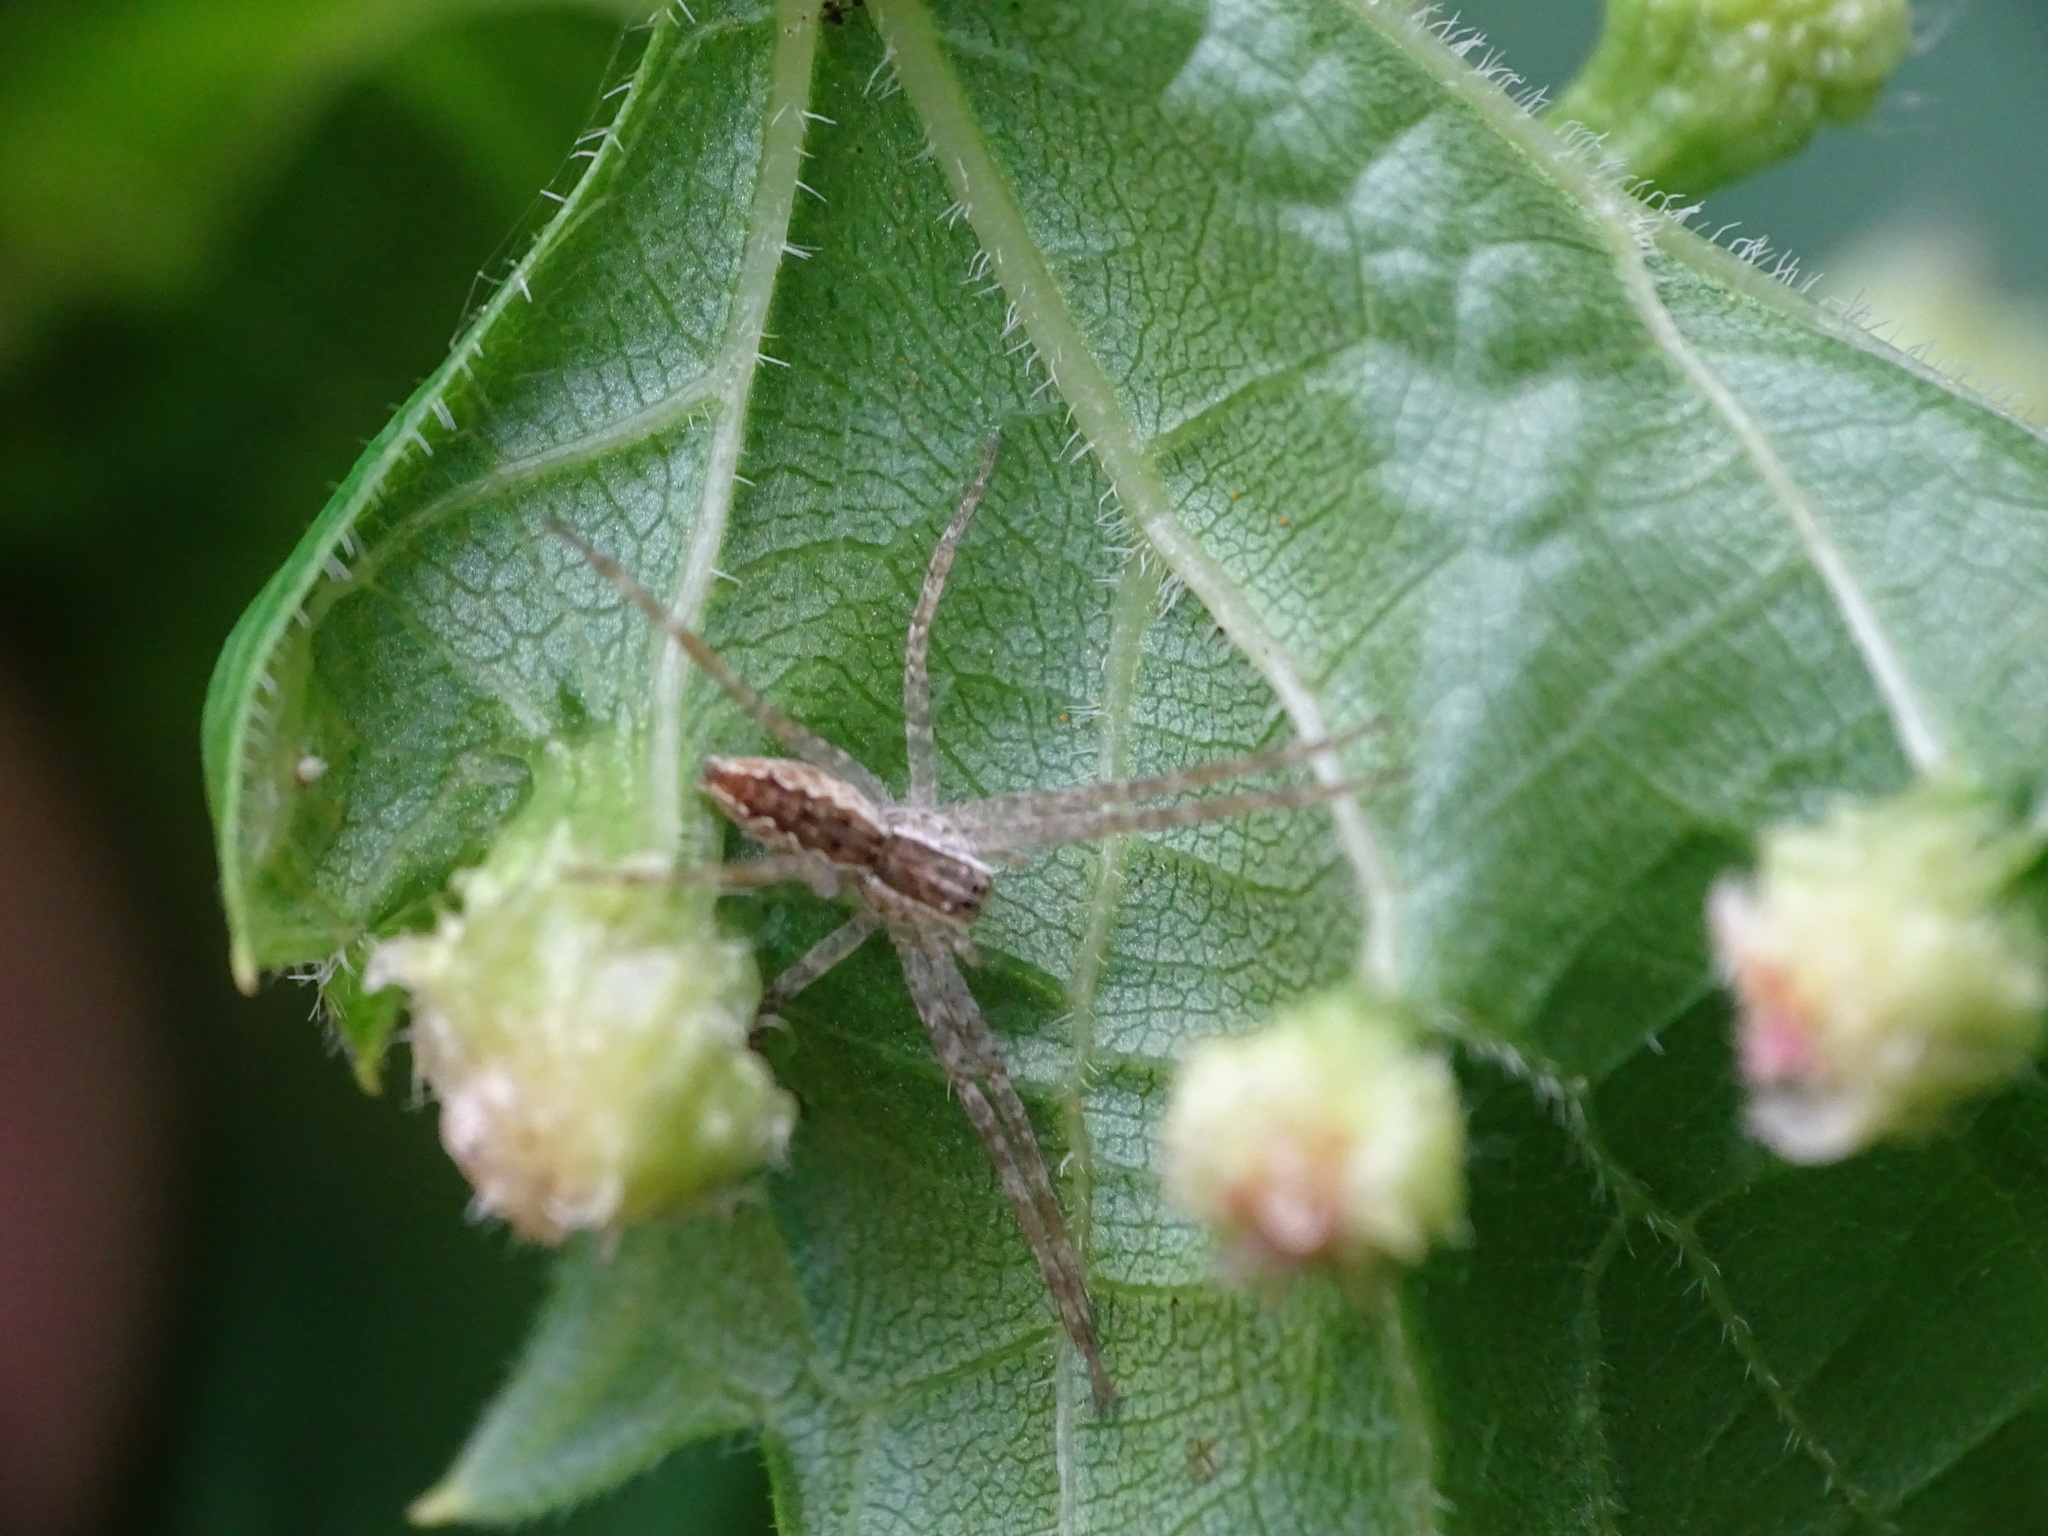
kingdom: Animalia
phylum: Arthropoda
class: Arachnida
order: Araneae
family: Pisauridae
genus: Pisaurina
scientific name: Pisaurina mira
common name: American nursery web spider
